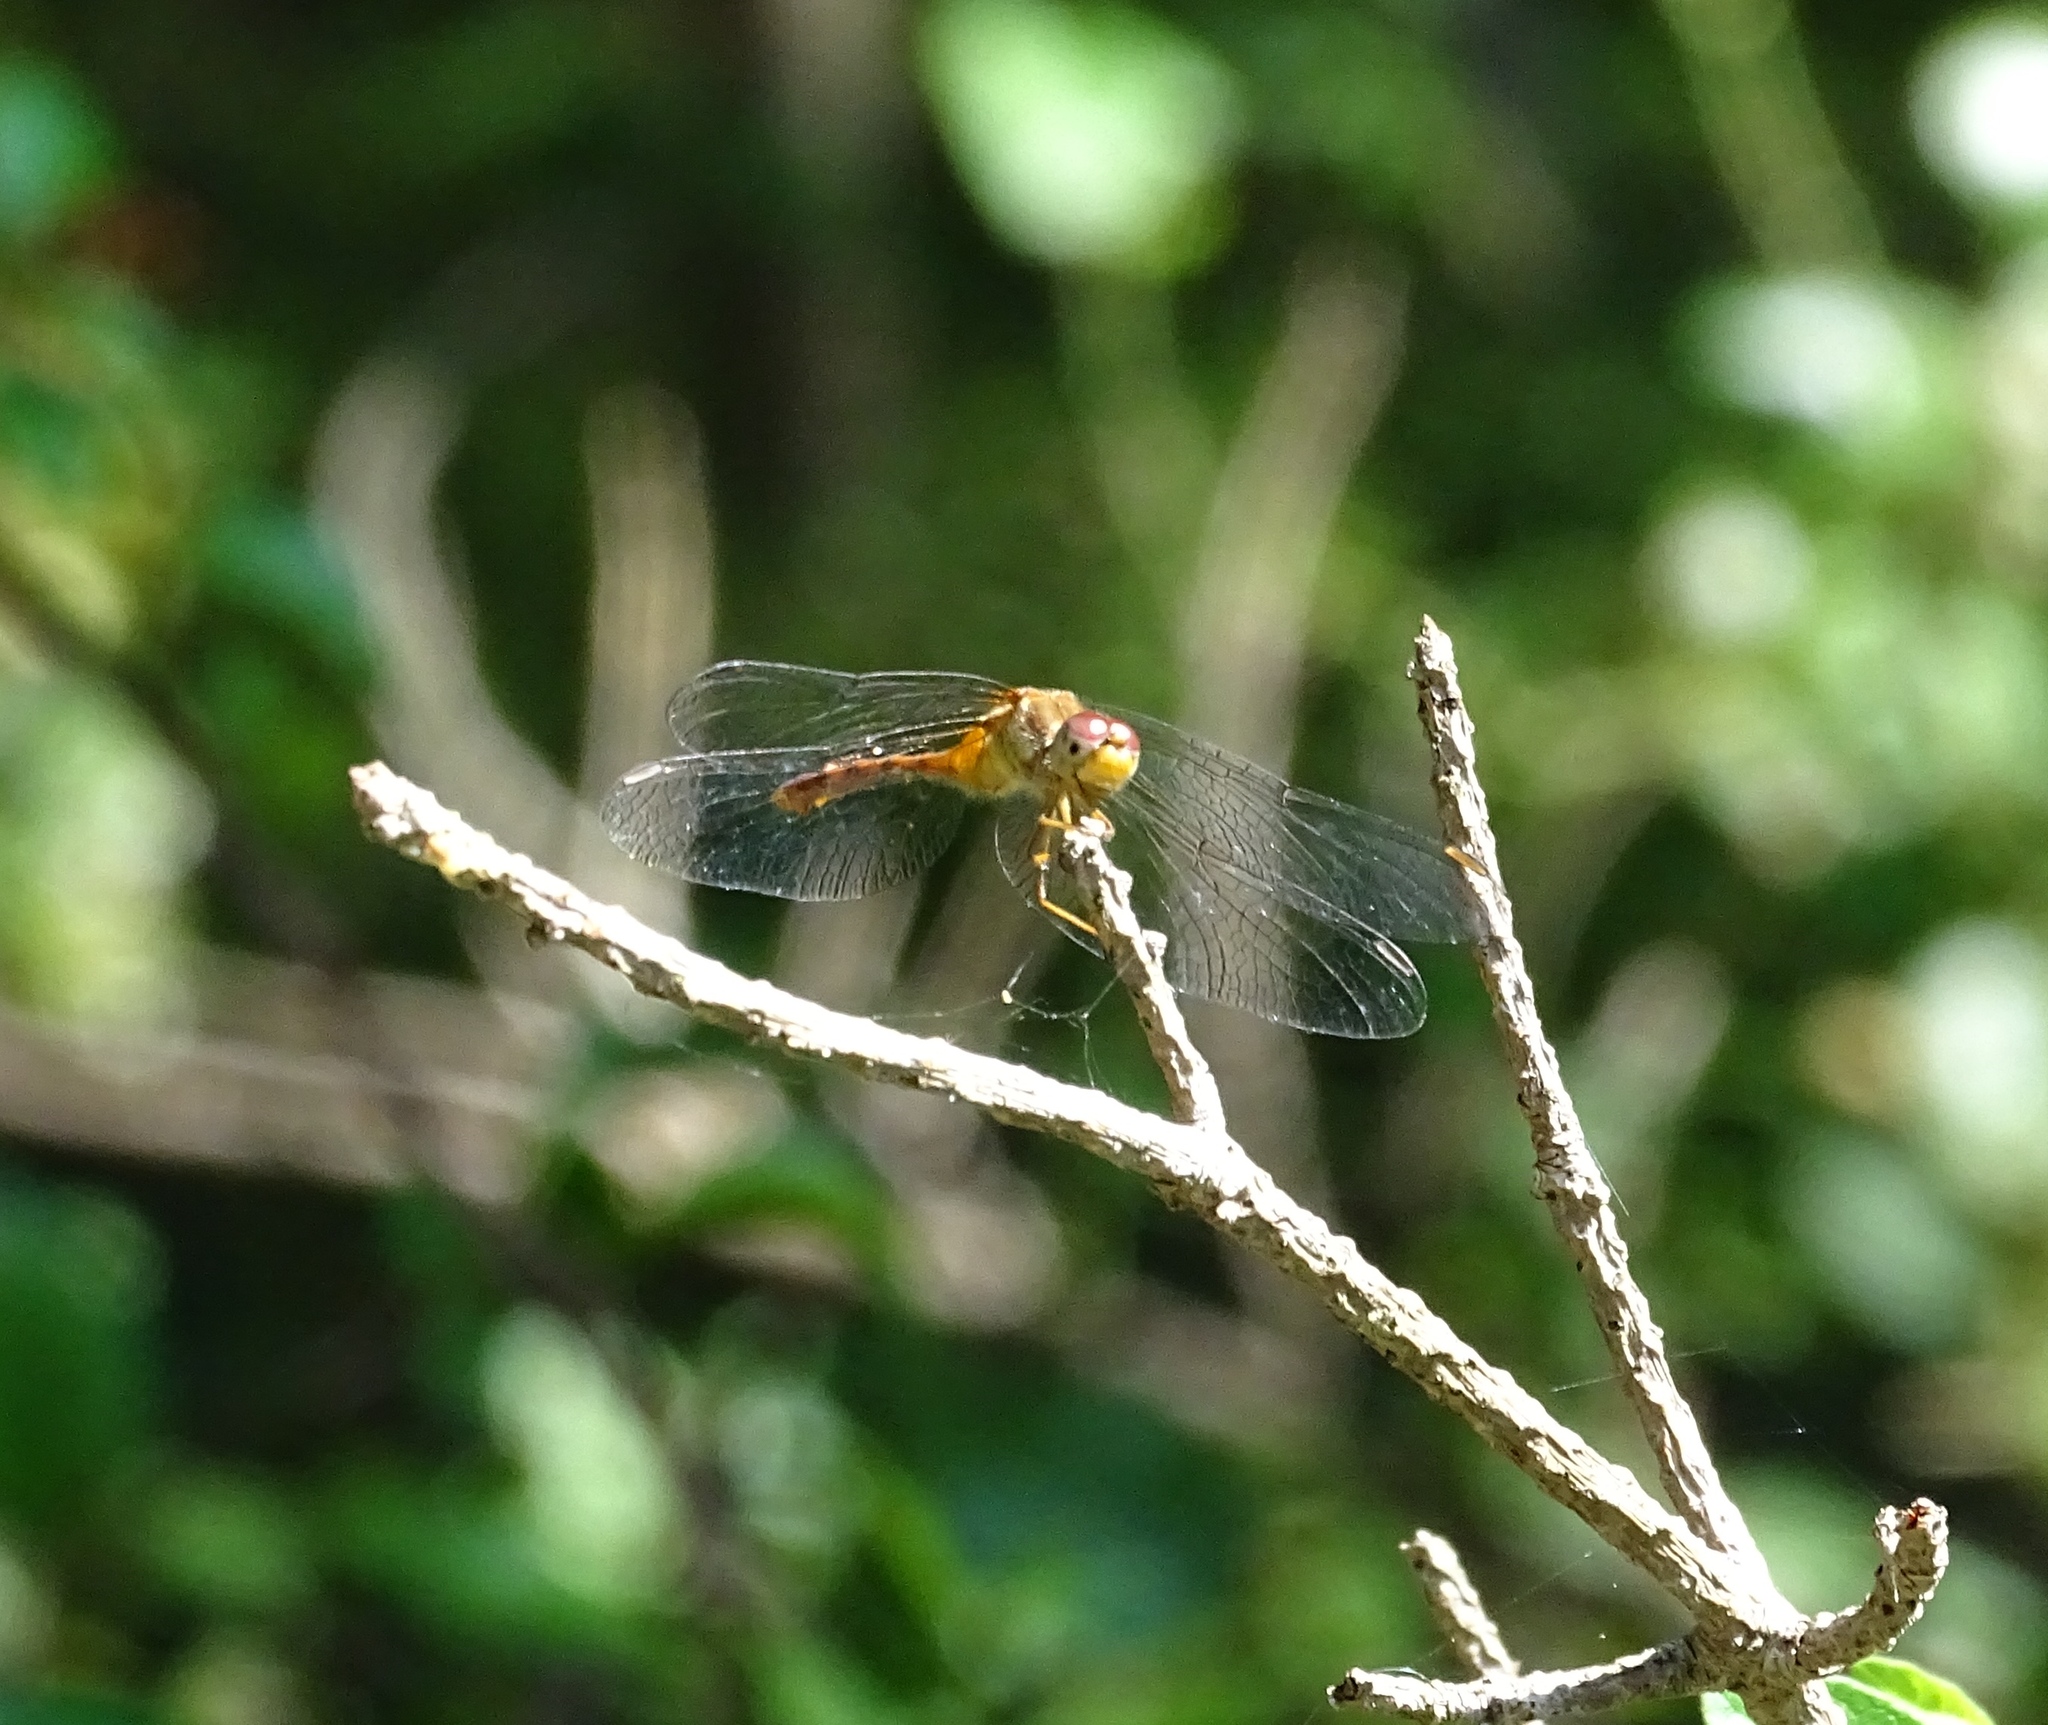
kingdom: Animalia
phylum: Arthropoda
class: Insecta
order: Odonata
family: Libellulidae
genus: Sympetrum
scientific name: Sympetrum vicinum
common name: Autumn meadowhawk
